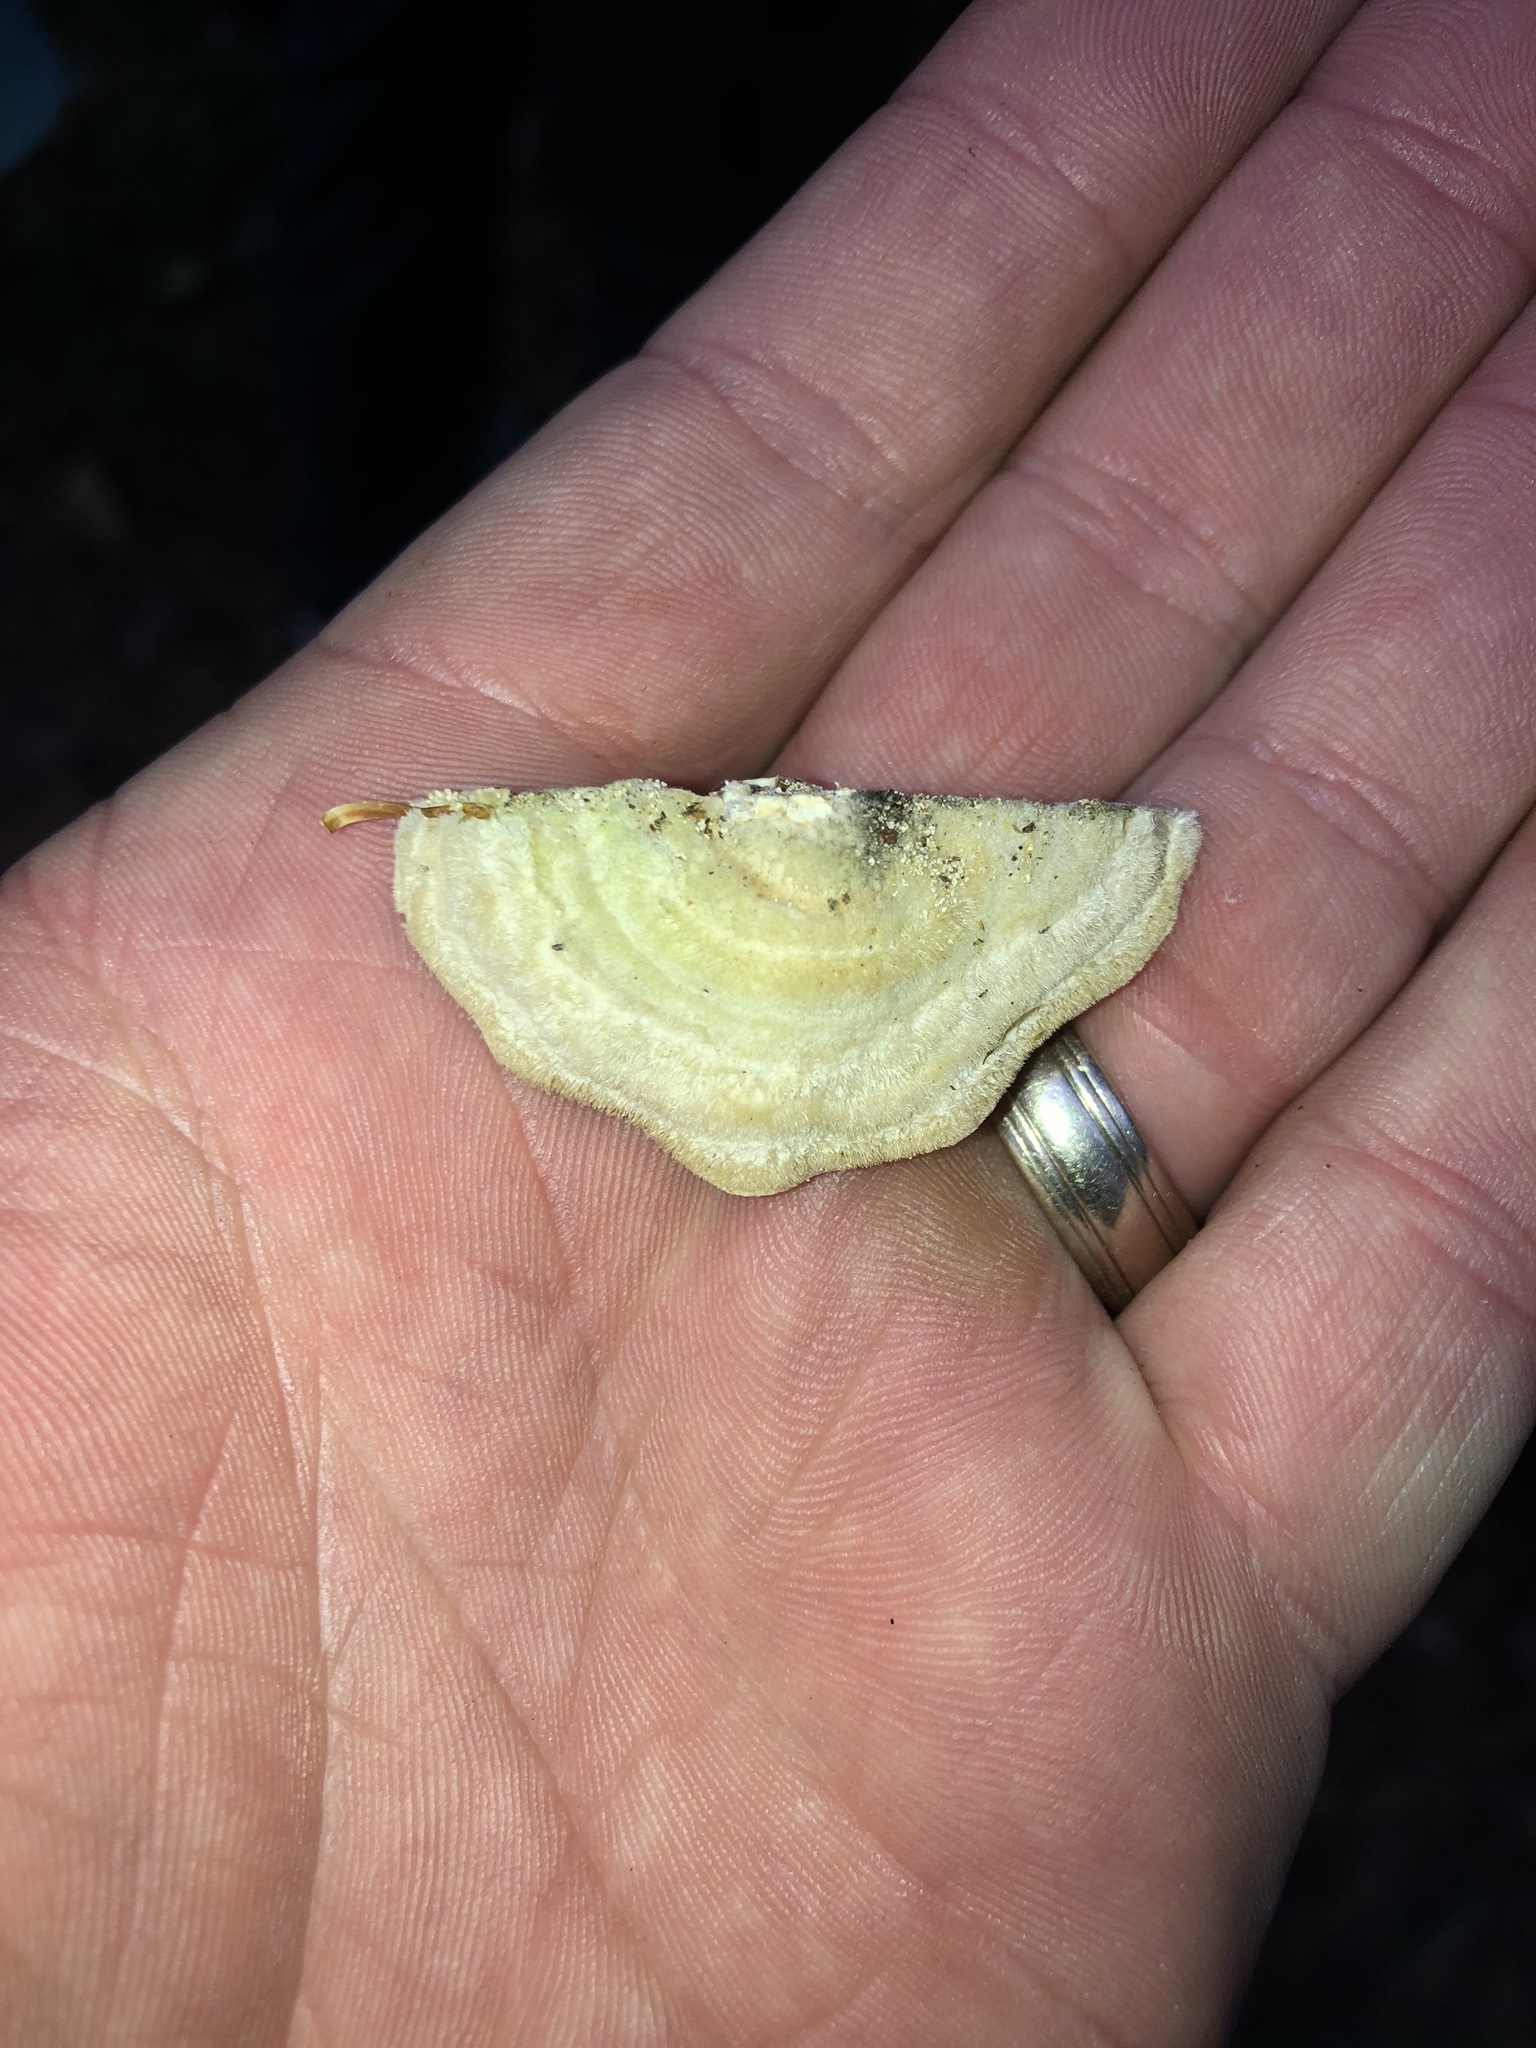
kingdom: Fungi
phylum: Basidiomycota
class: Agaricomycetes
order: Polyporales
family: Cerrenaceae
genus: Cerrena
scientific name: Cerrena unicolor
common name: Mossy maze polypore
